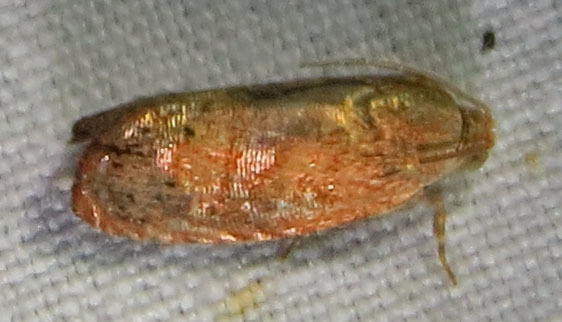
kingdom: Animalia
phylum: Arthropoda
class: Insecta
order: Lepidoptera
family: Tortricidae
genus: Cydia
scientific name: Cydia latiferreana
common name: Filbertworm moth
